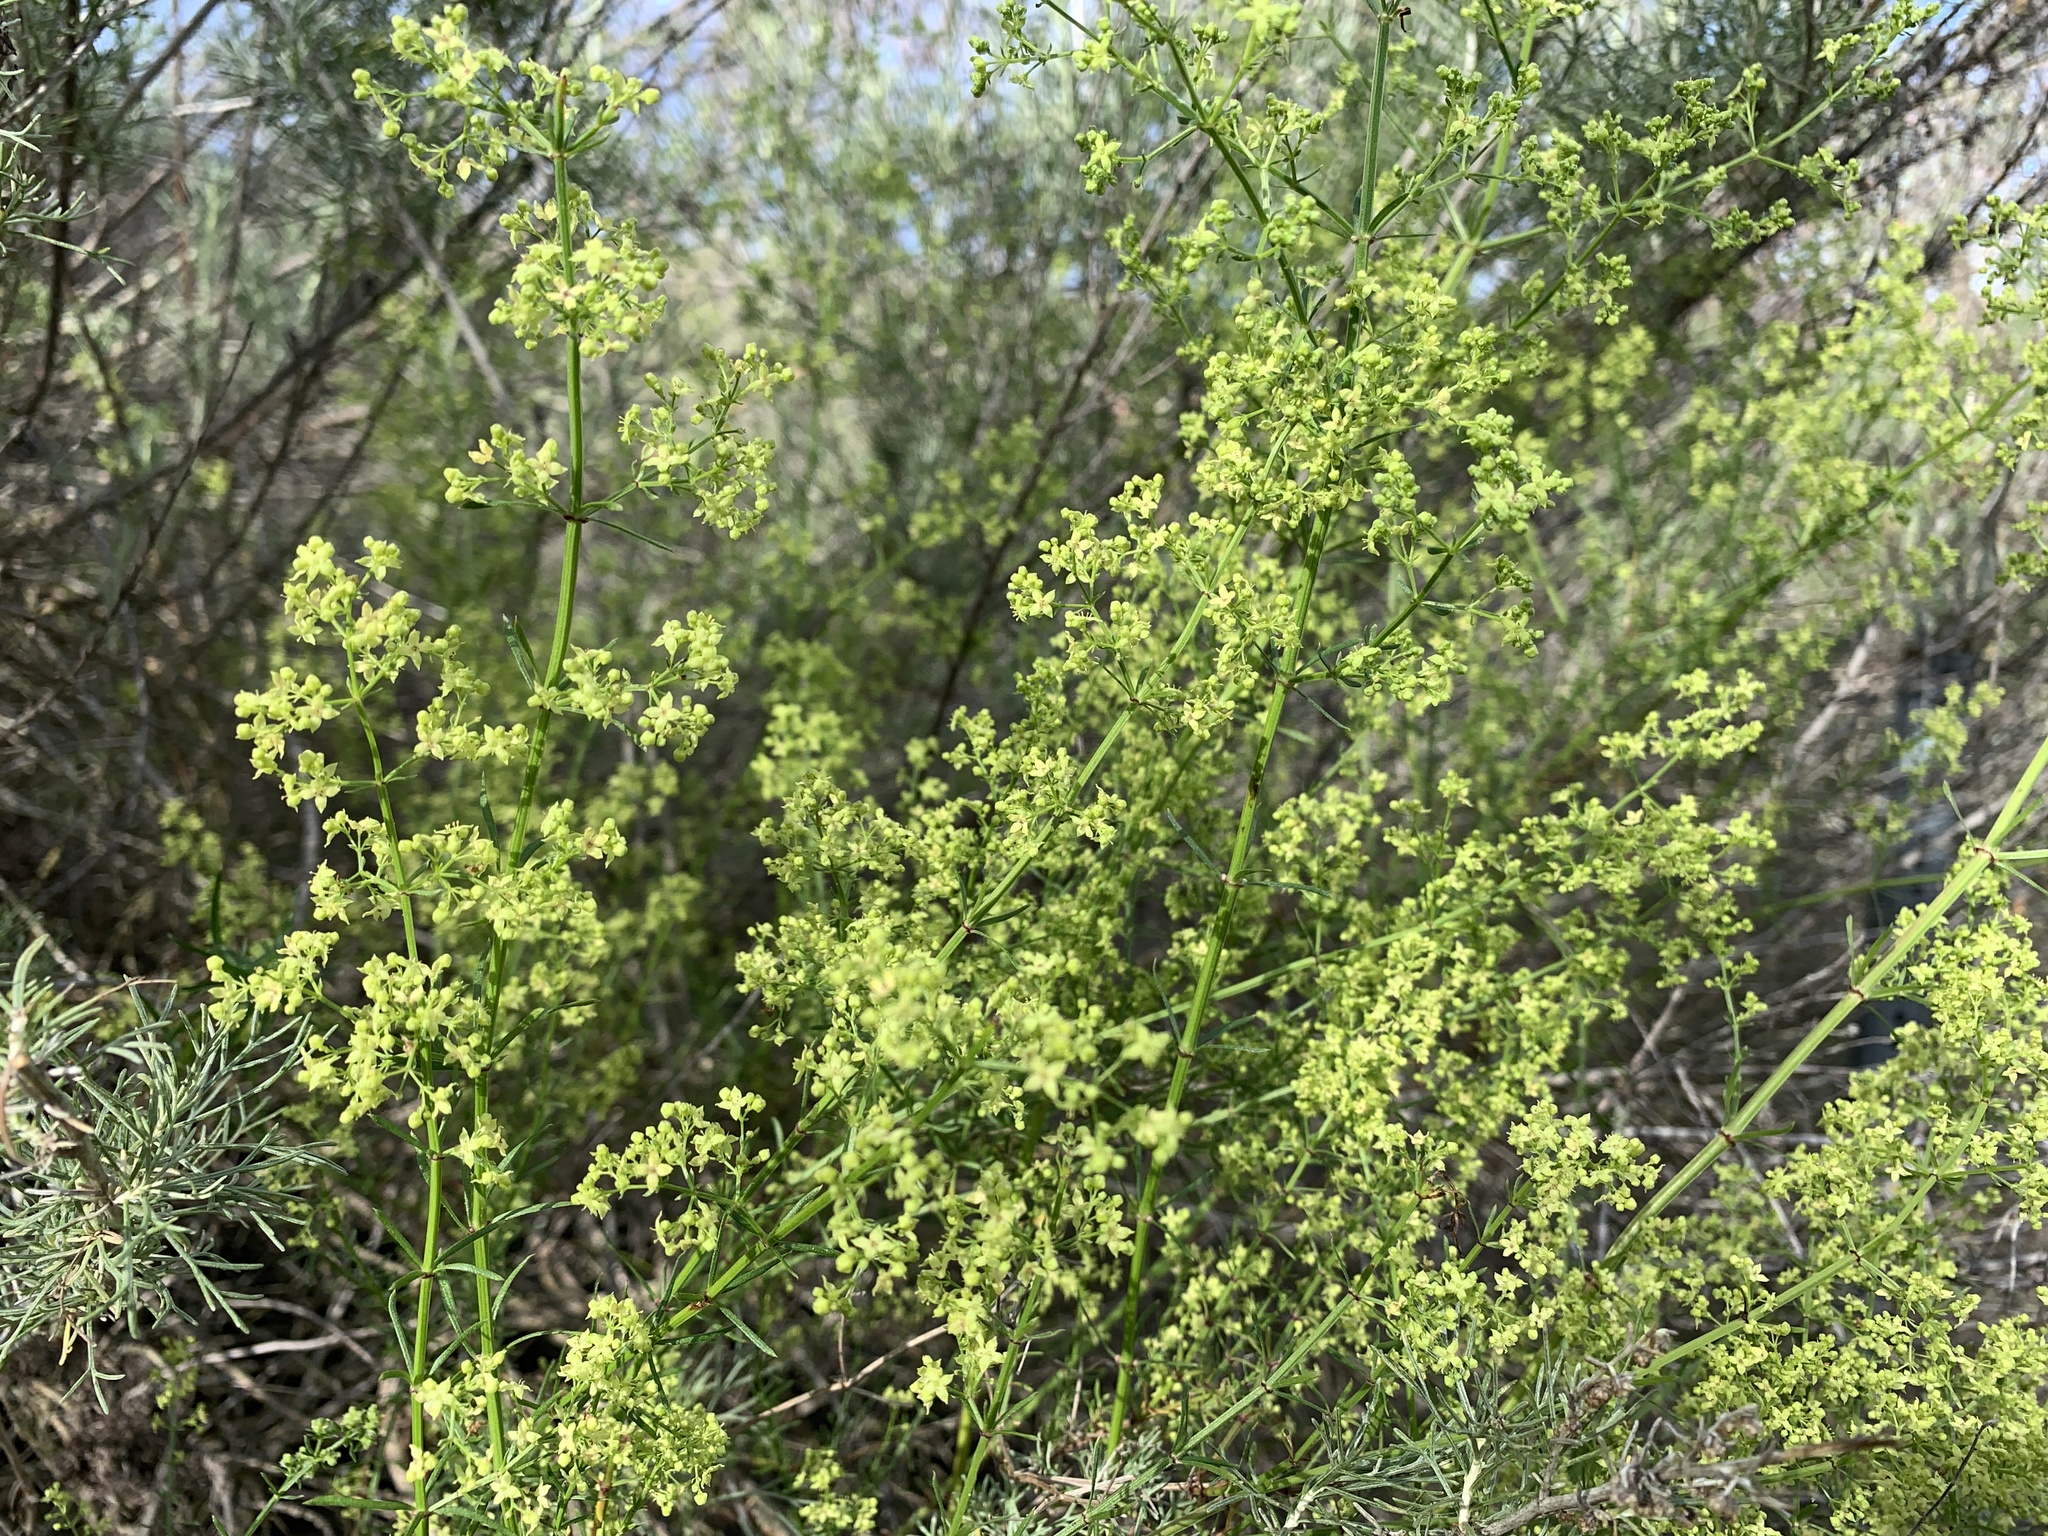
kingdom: Plantae
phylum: Tracheophyta
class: Magnoliopsida
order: Gentianales
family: Rubiaceae
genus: Galium
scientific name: Galium angustifolium
